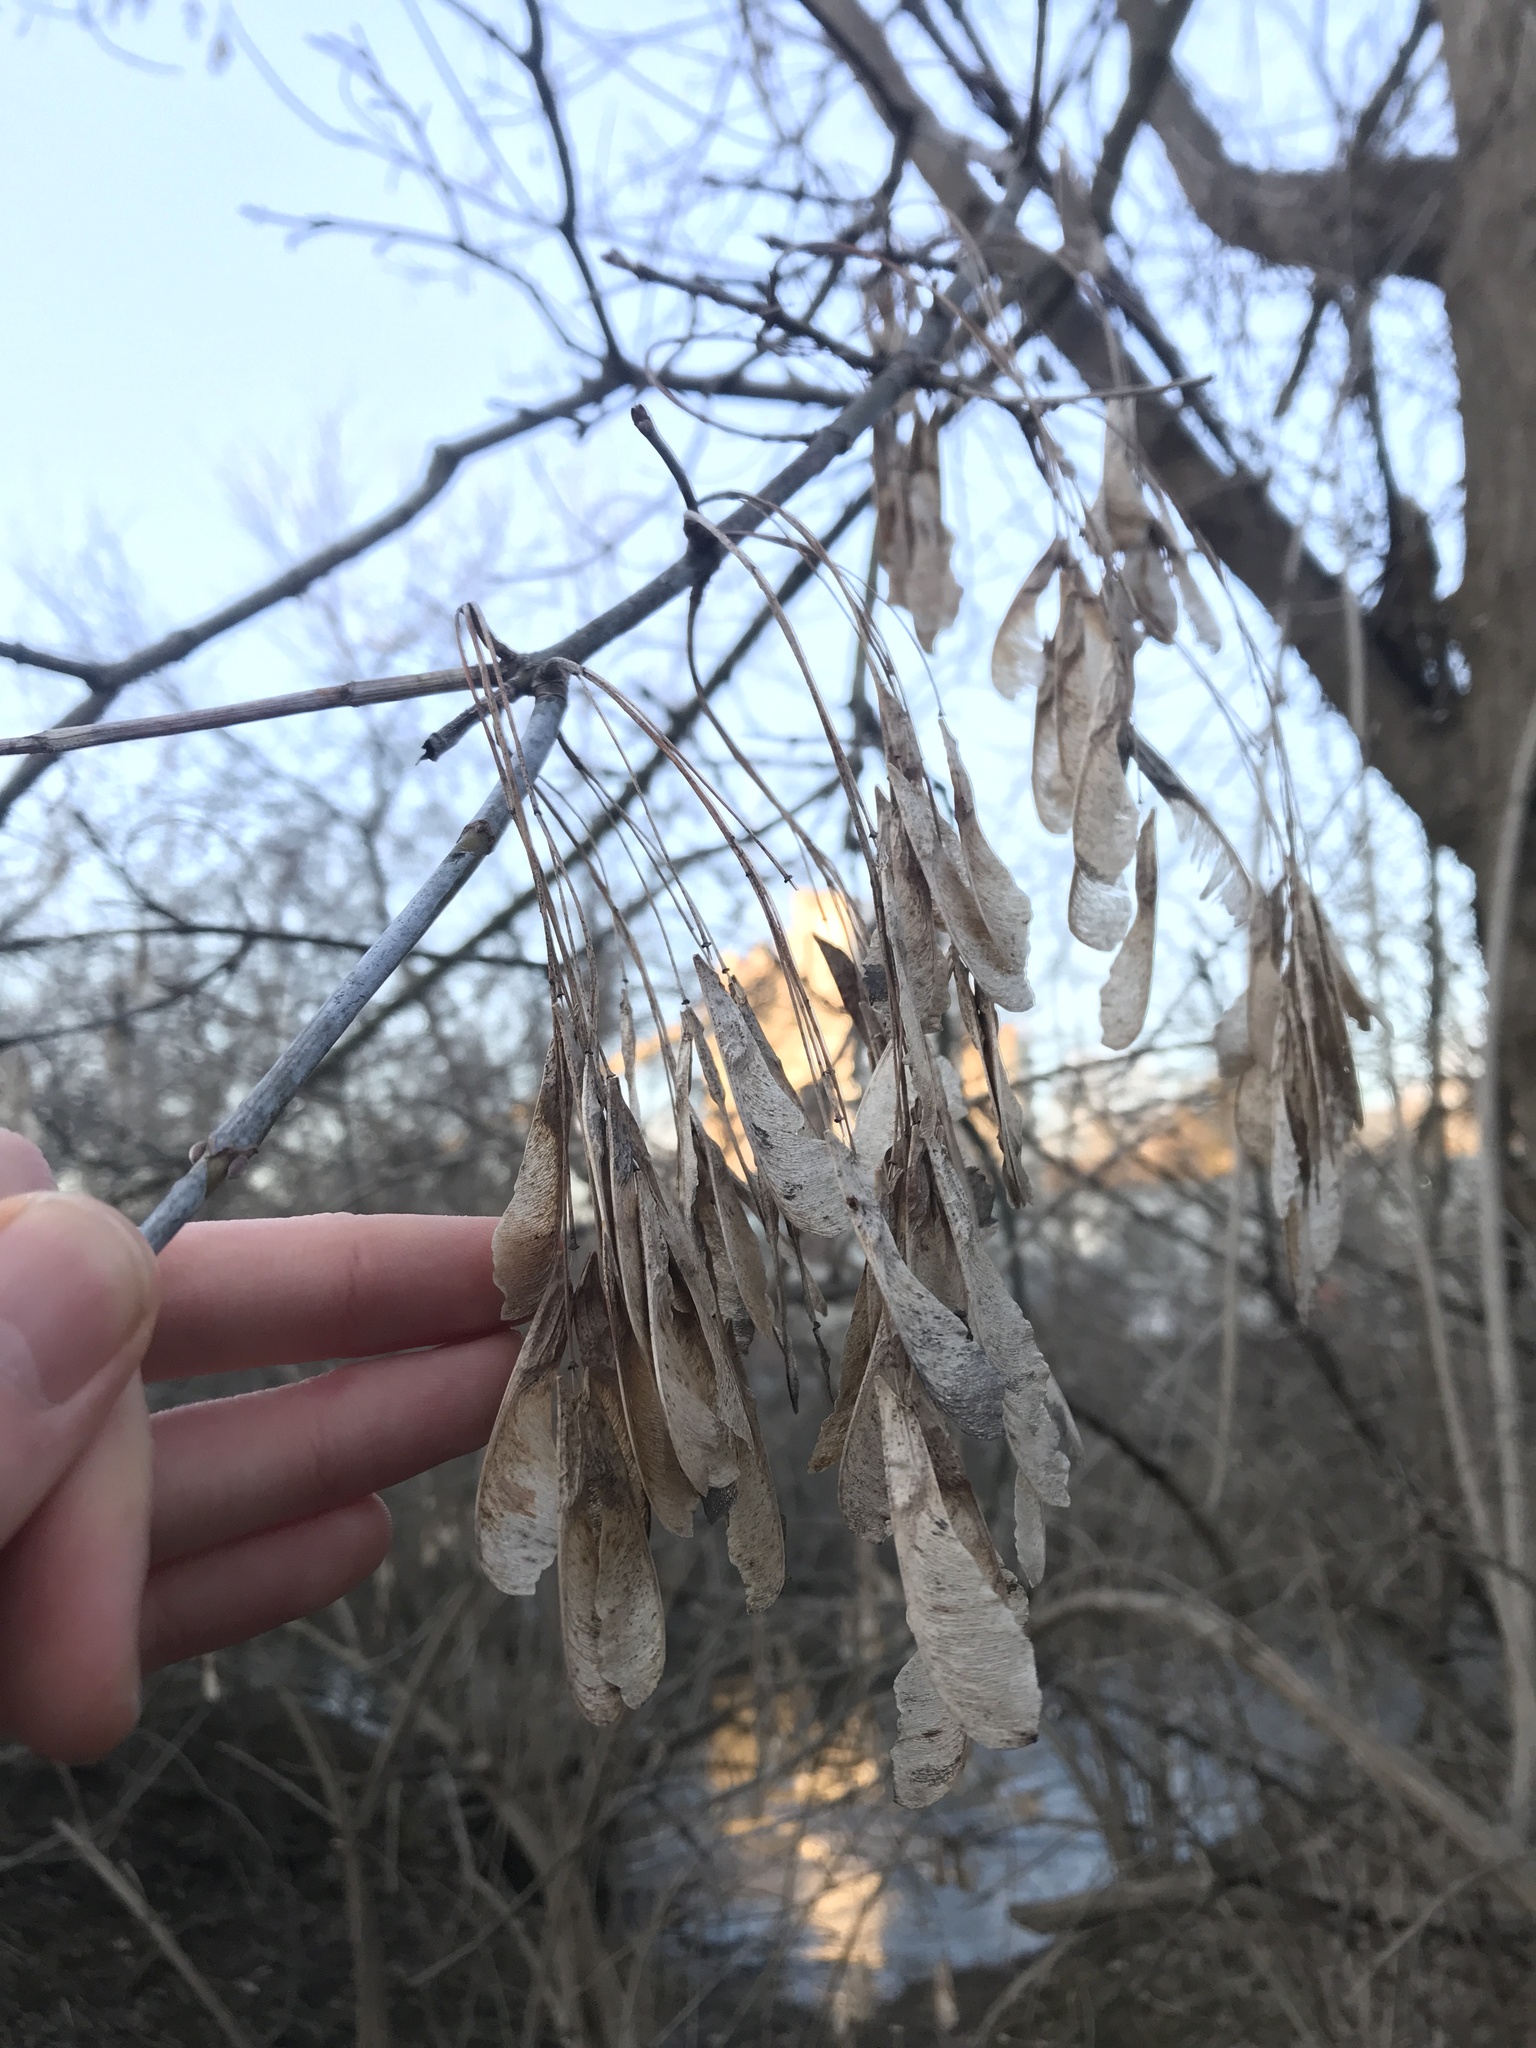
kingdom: Plantae
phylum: Tracheophyta
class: Magnoliopsida
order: Sapindales
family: Sapindaceae
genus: Acer
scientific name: Acer negundo
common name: Ashleaf maple
